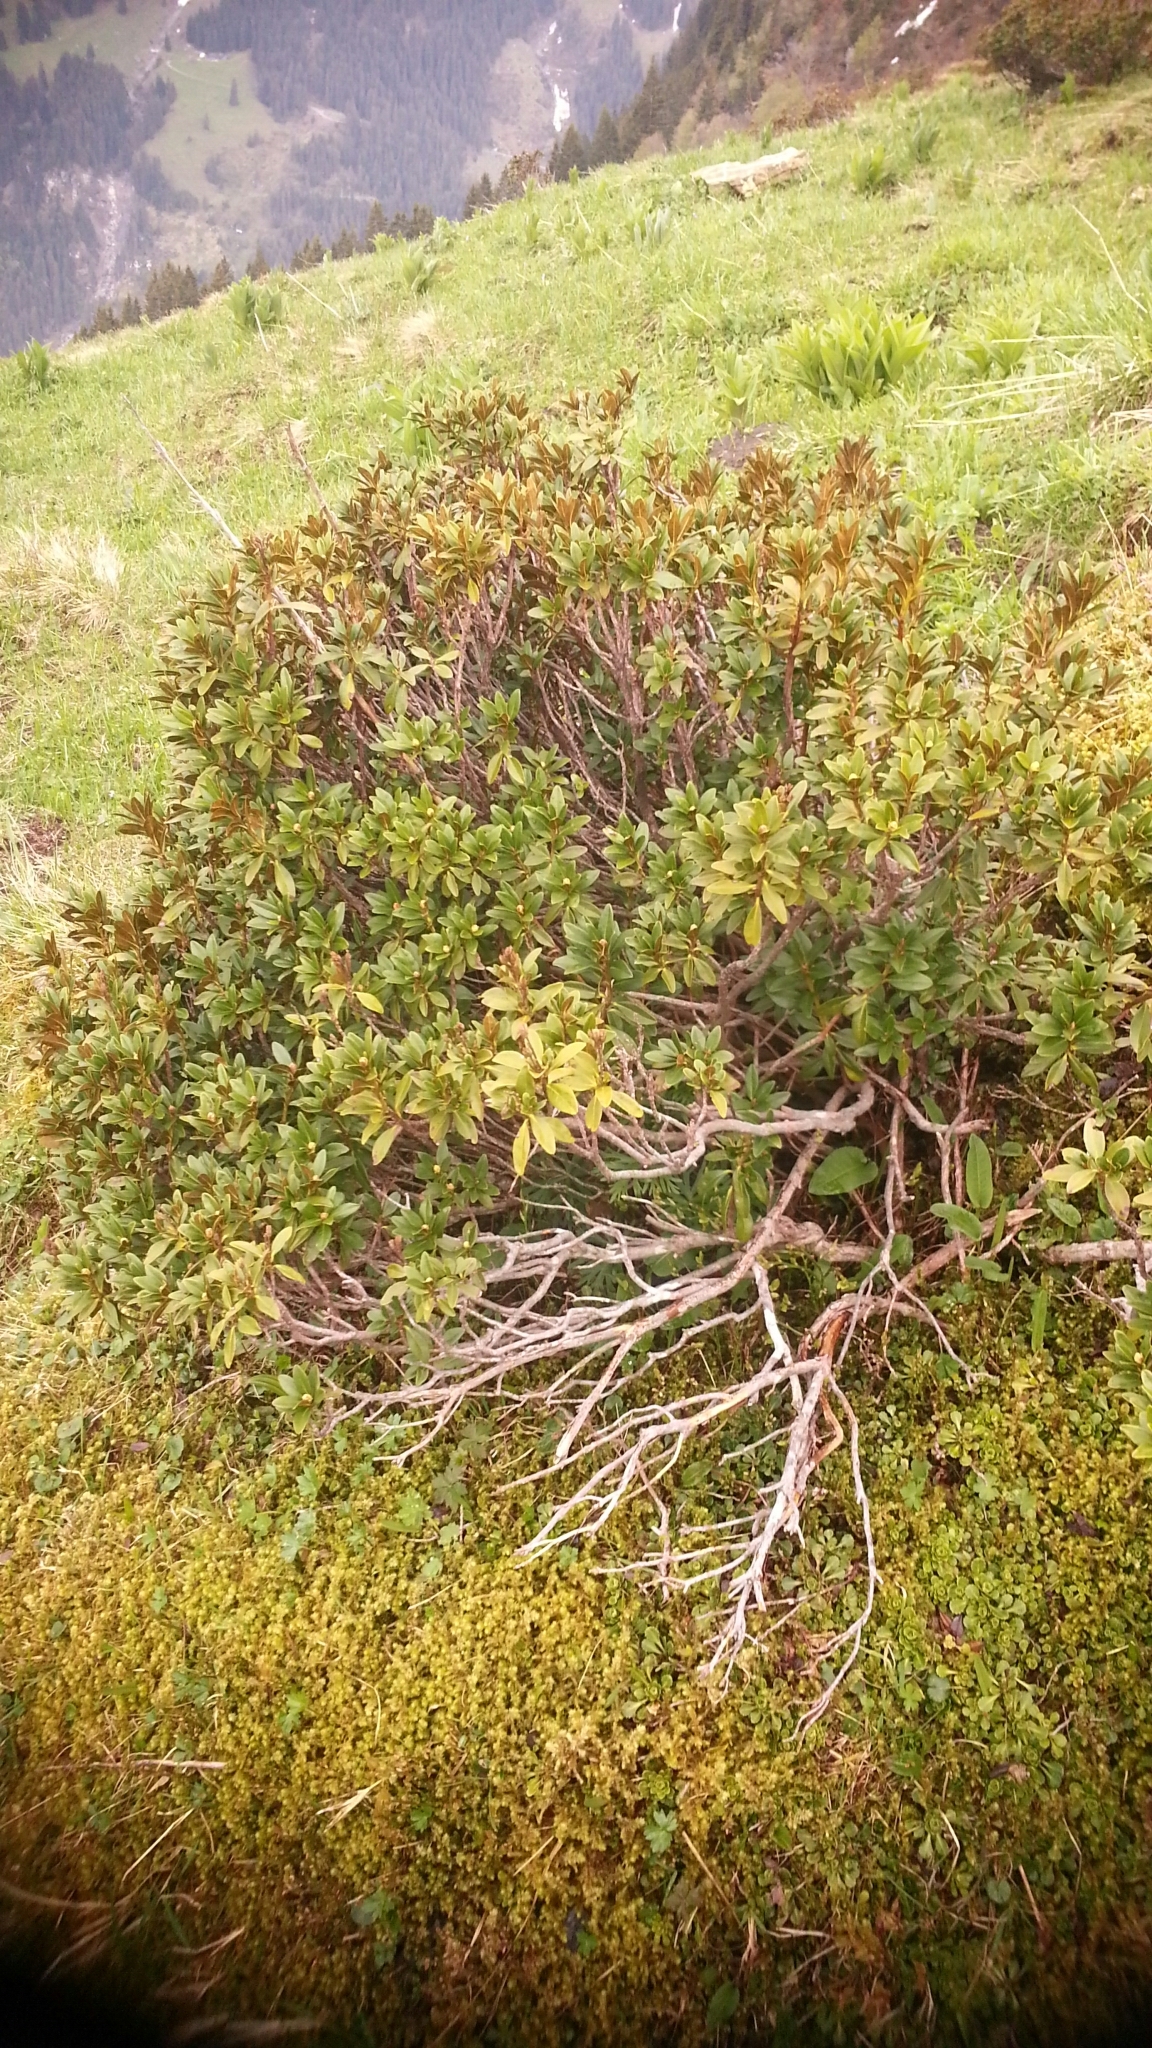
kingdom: Plantae
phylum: Tracheophyta
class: Magnoliopsida
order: Ericales
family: Ericaceae
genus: Rhododendron
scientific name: Rhododendron ferrugineum
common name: Alpenrose
